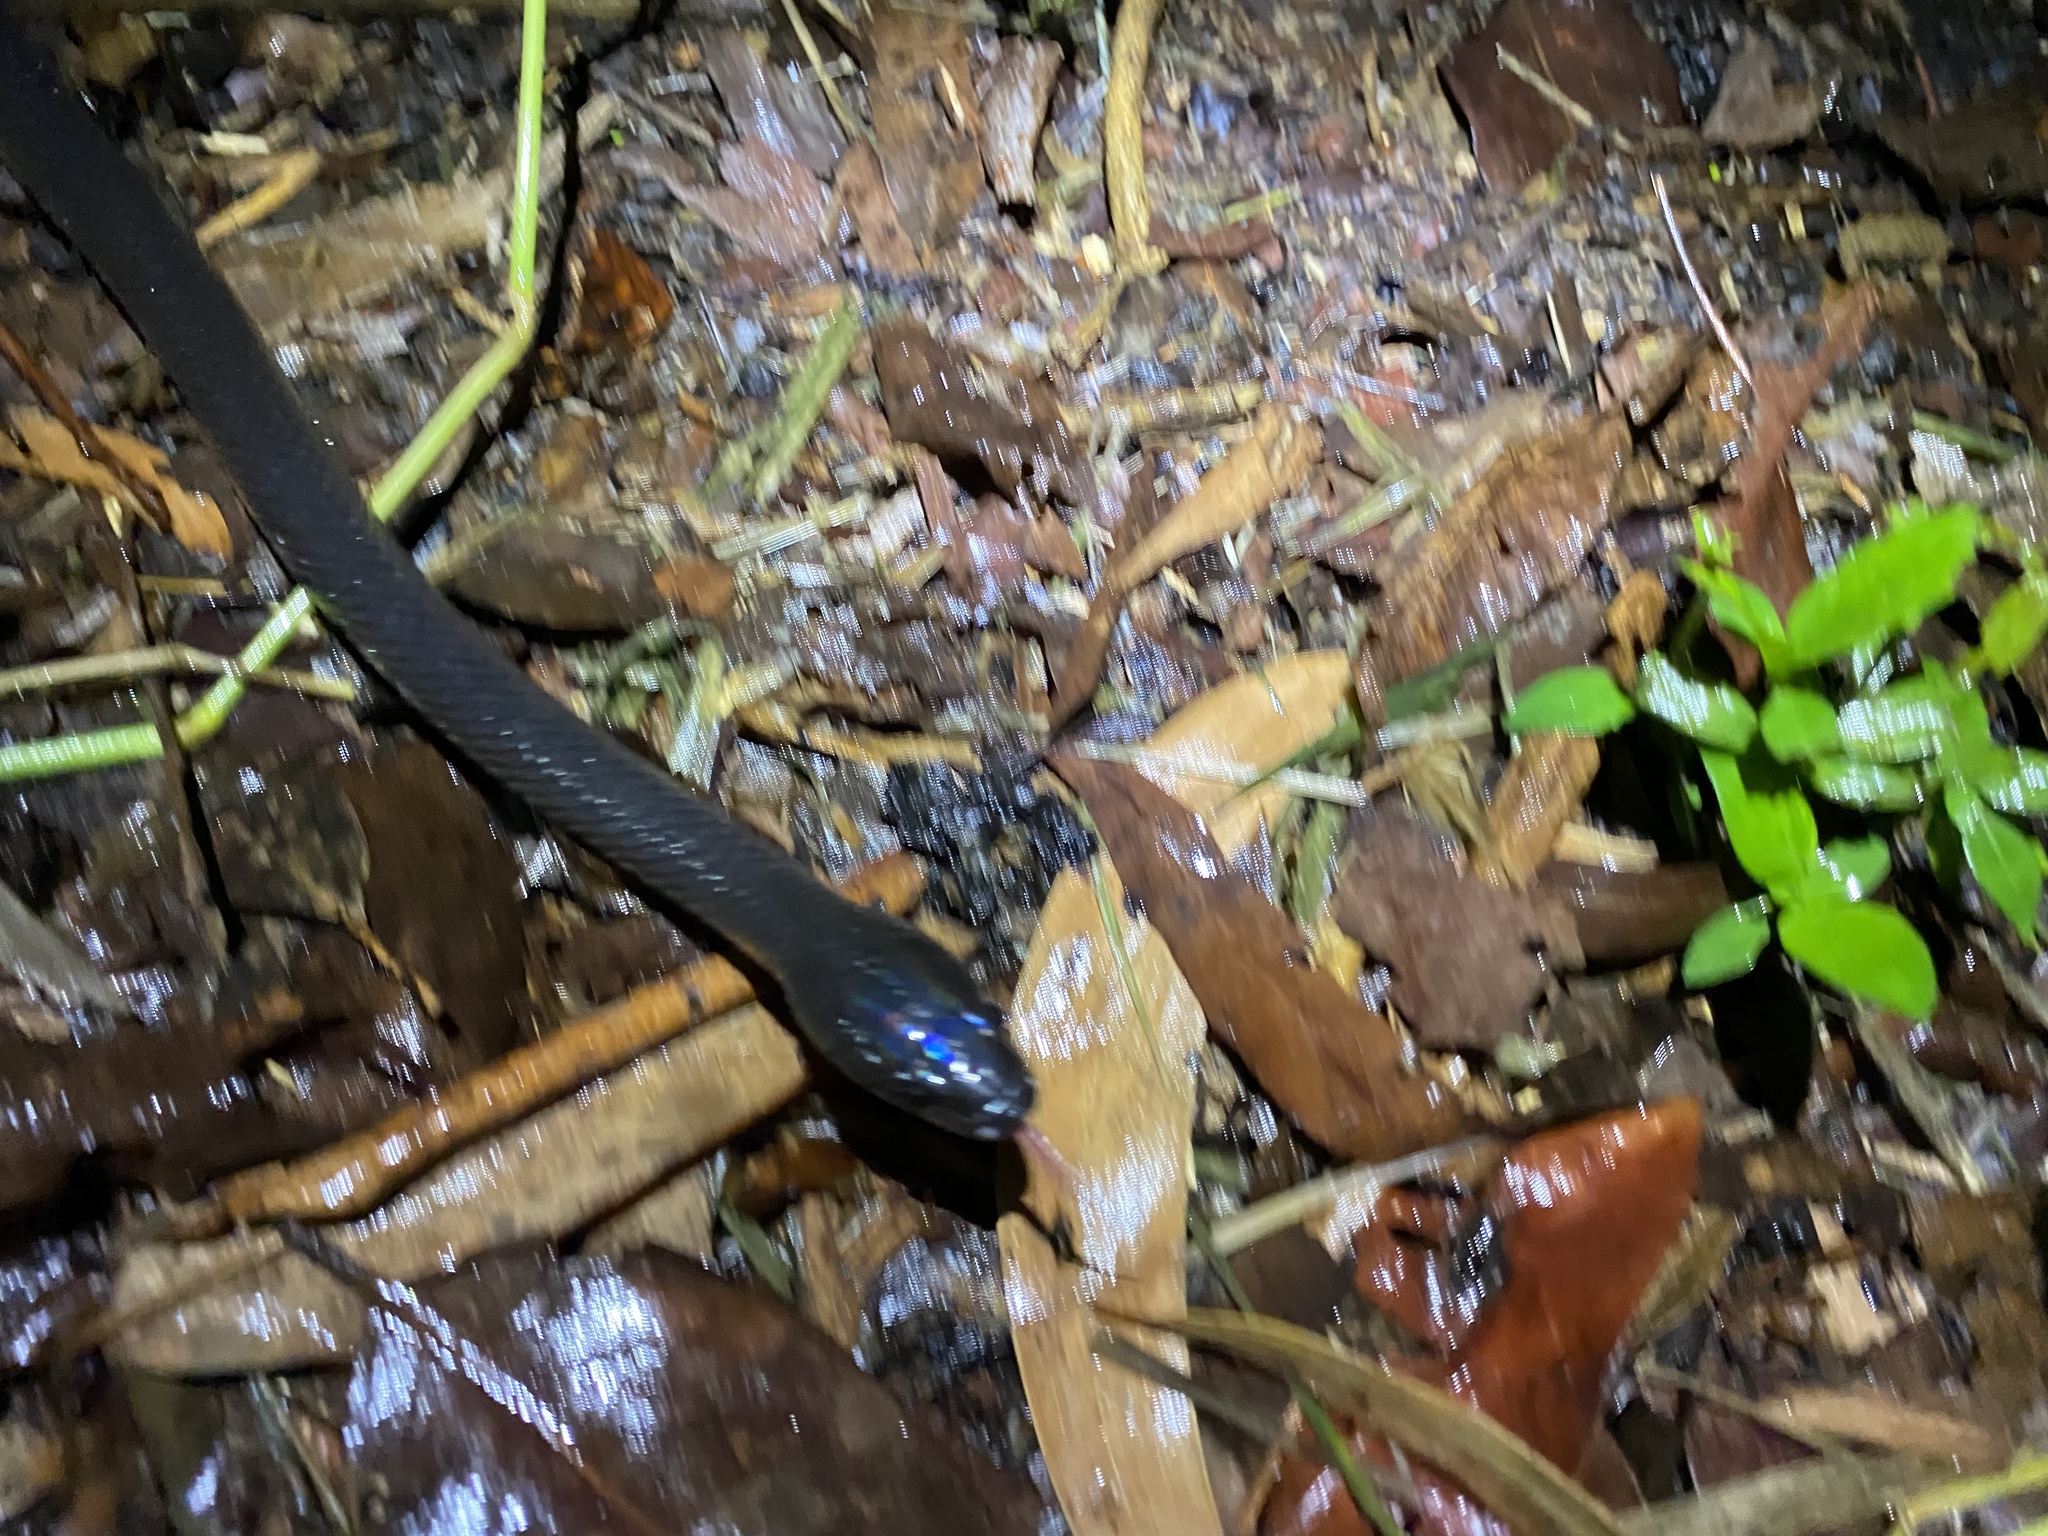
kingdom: Animalia
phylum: Chordata
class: Squamata
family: Colubridae
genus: Stegonotus
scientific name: Stegonotus australis
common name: Australian groundsnake
